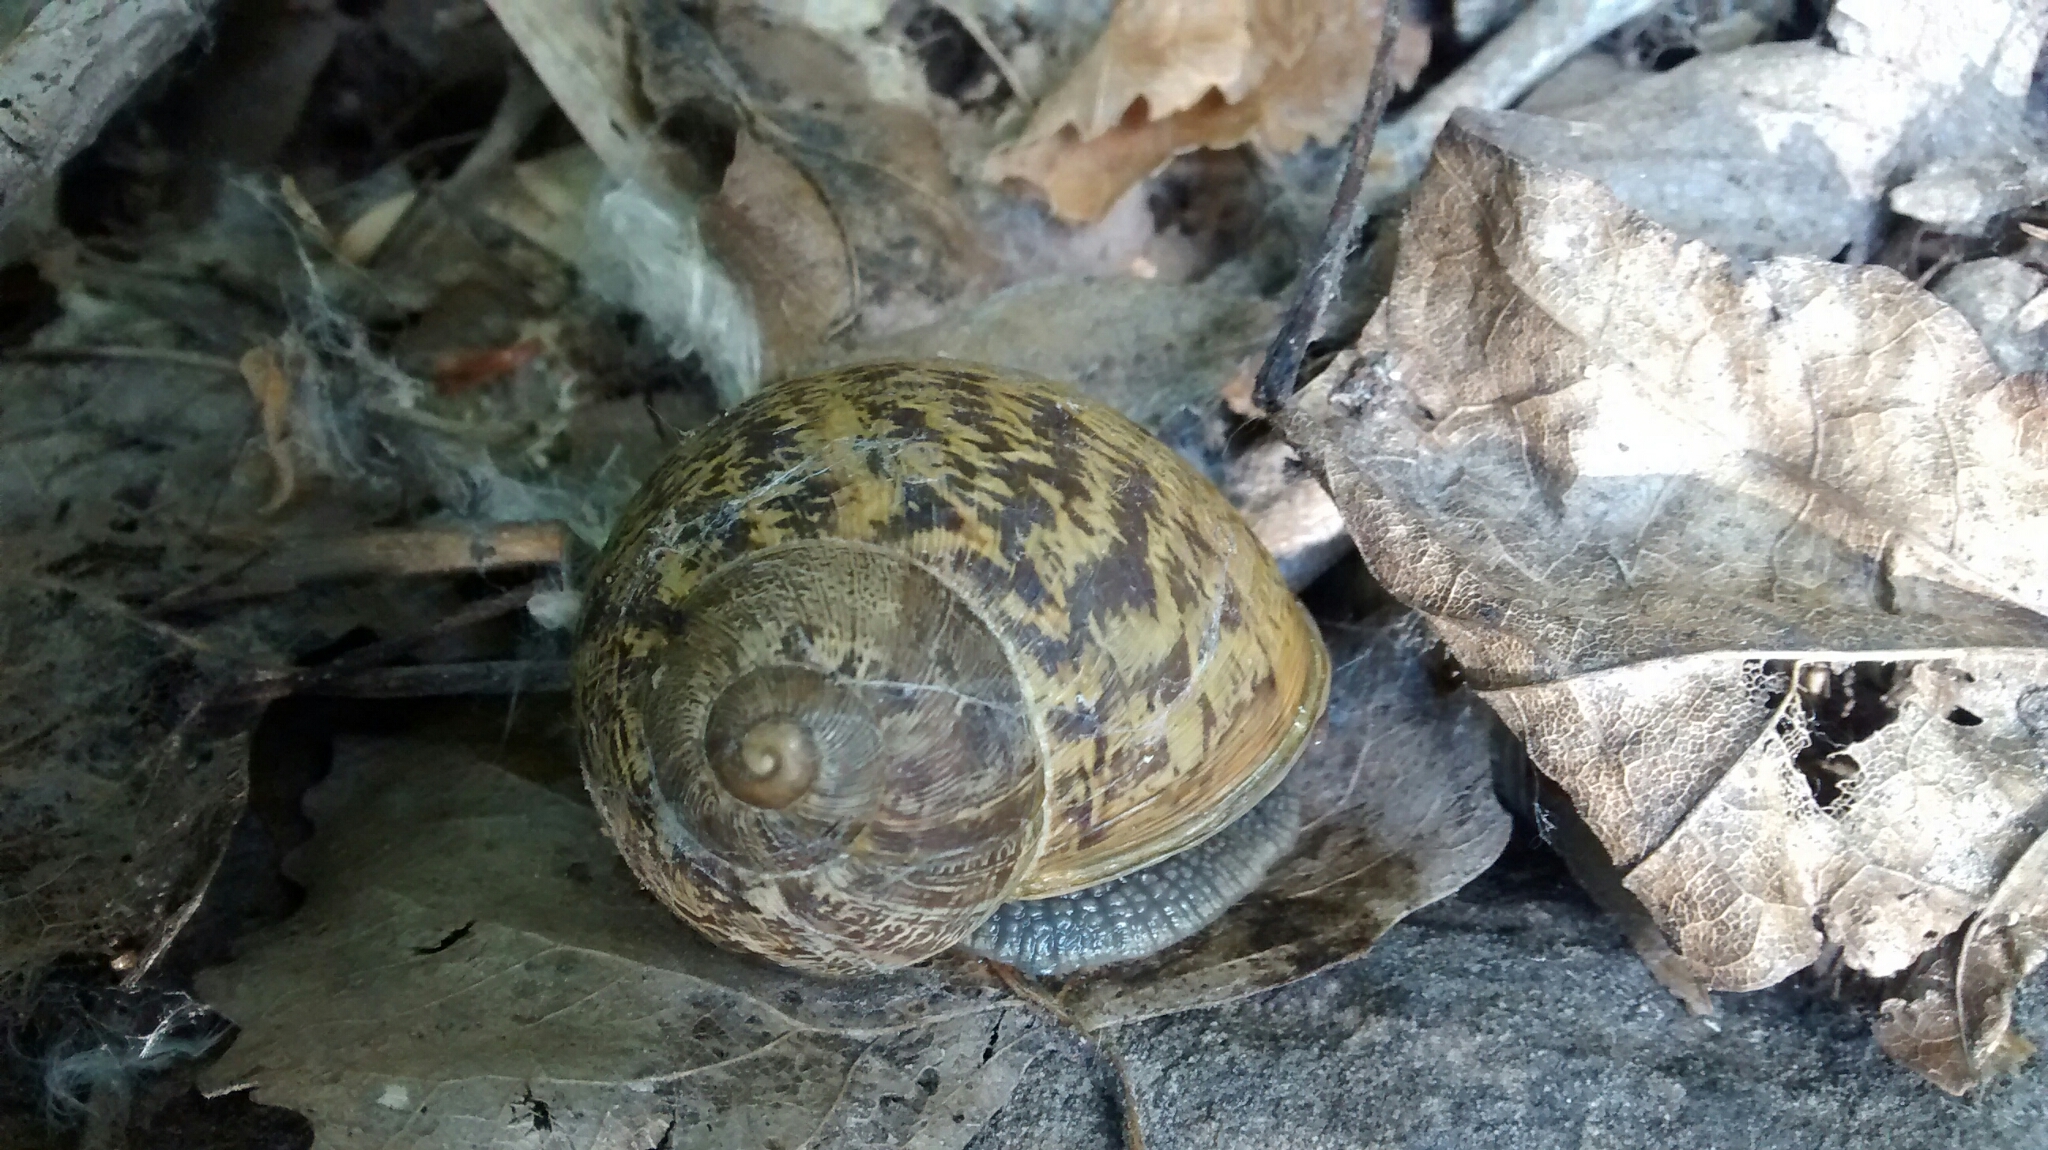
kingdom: Animalia
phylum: Mollusca
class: Gastropoda
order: Stylommatophora
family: Helicidae
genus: Cornu
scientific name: Cornu aspersum
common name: Brown garden snail
